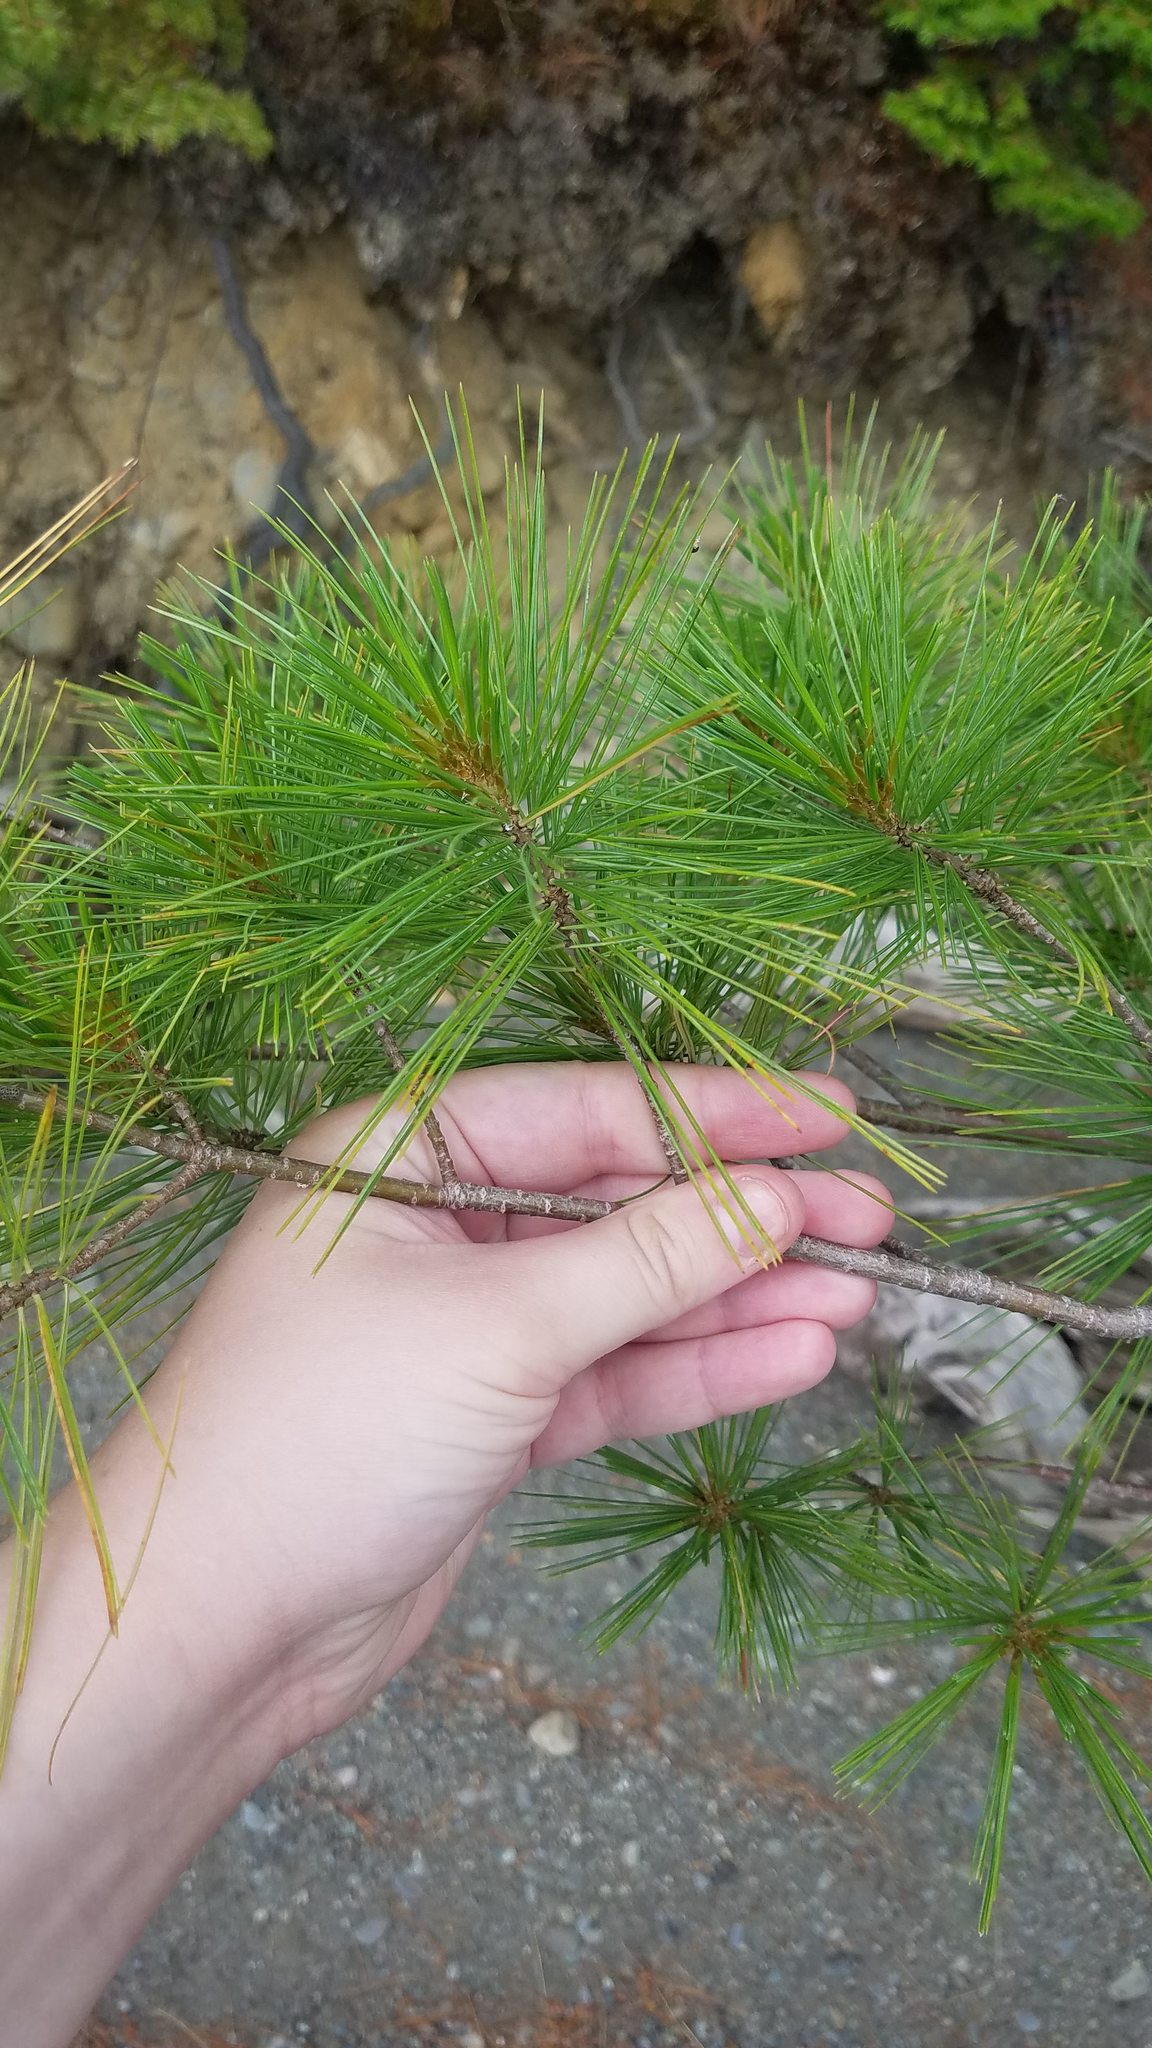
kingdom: Plantae
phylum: Tracheophyta
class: Pinopsida
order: Pinales
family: Pinaceae
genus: Pinus
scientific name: Pinus strobus
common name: Weymouth pine
